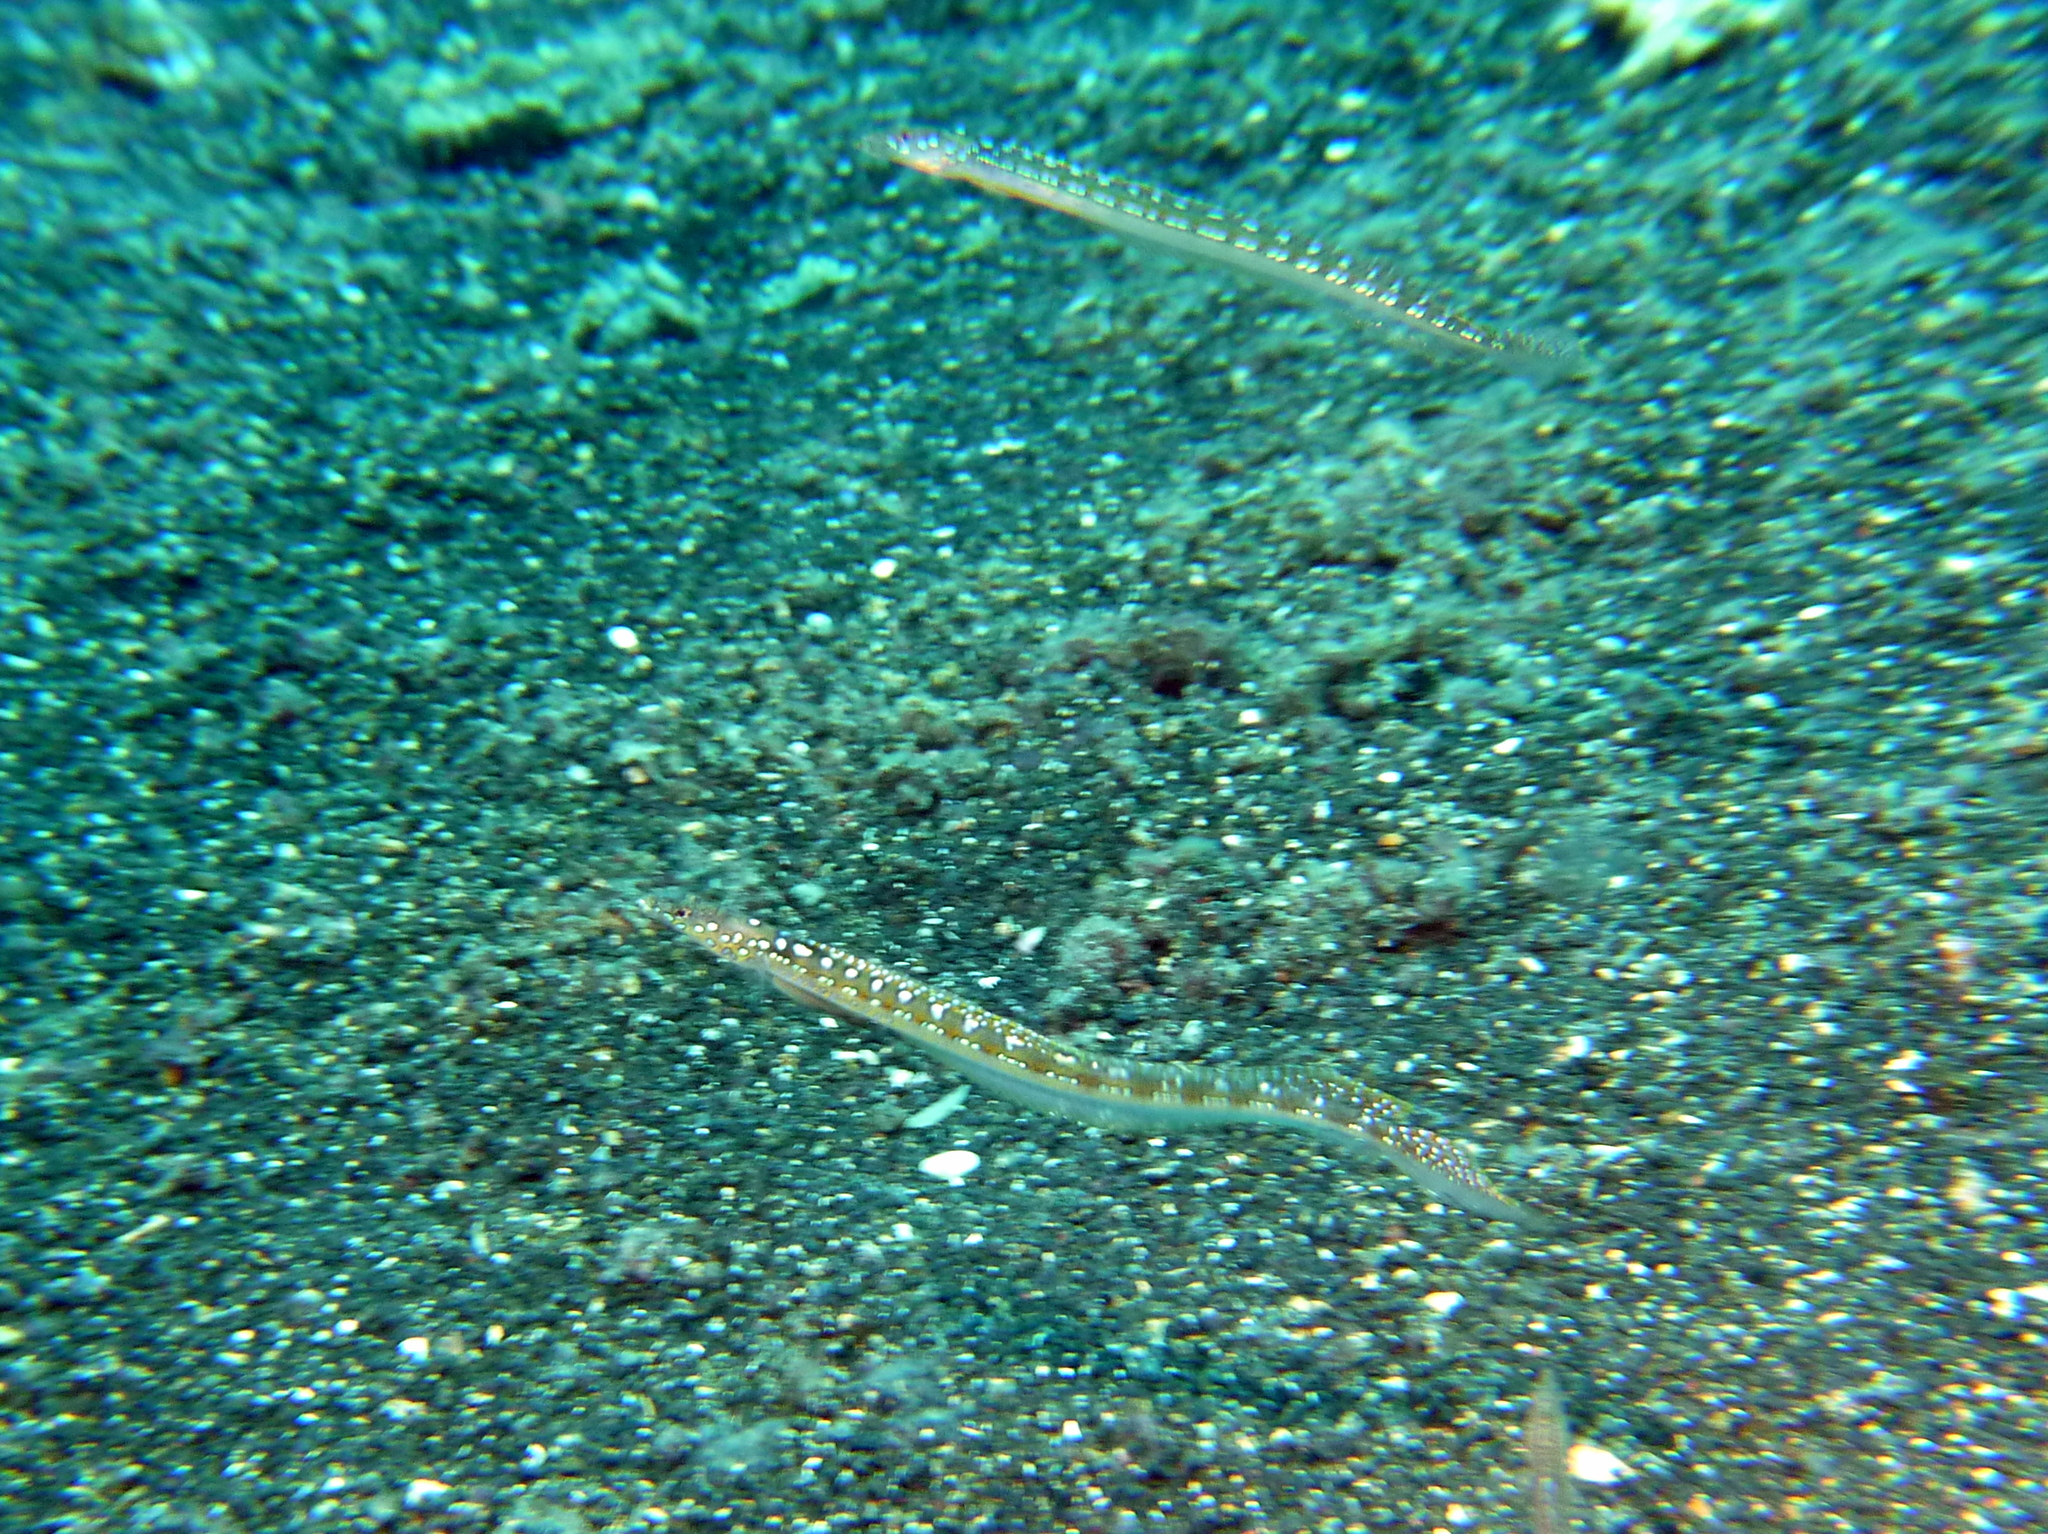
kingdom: Animalia
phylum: Chordata
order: Perciformes
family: Trichonotidae
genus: Trichonotus
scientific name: Trichonotus elegans
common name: Elegant sand-diver
